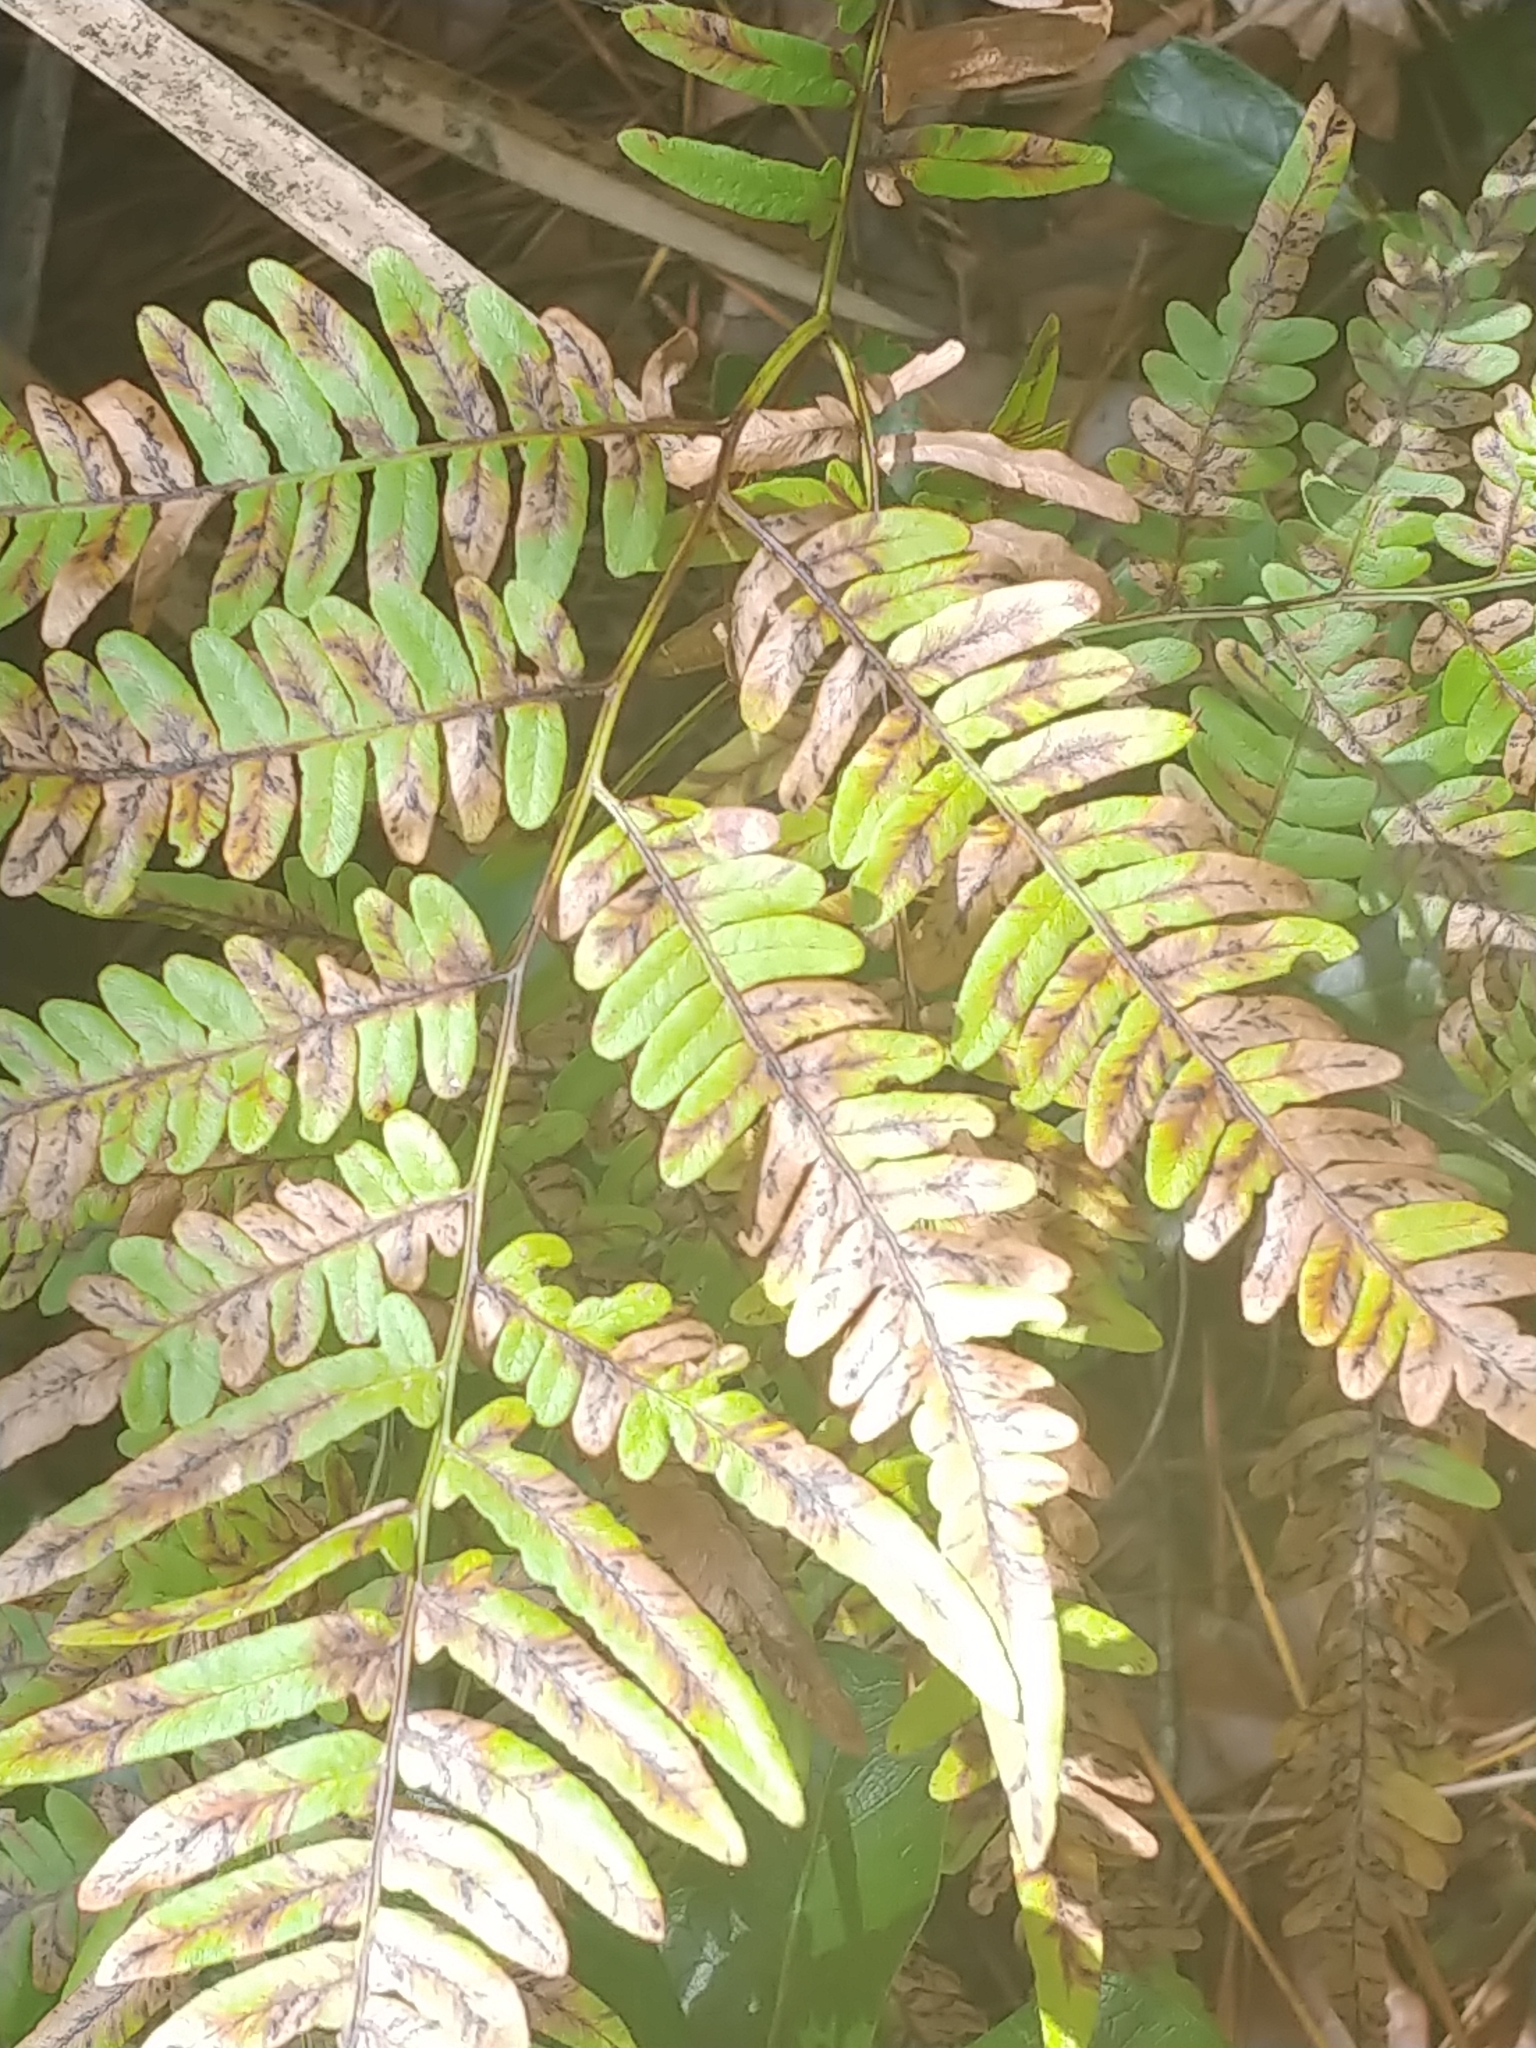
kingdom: Plantae
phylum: Tracheophyta
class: Polypodiopsida
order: Polypodiales
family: Dennstaedtiaceae
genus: Pteridium
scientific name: Pteridium aquilinum
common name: Bracken
